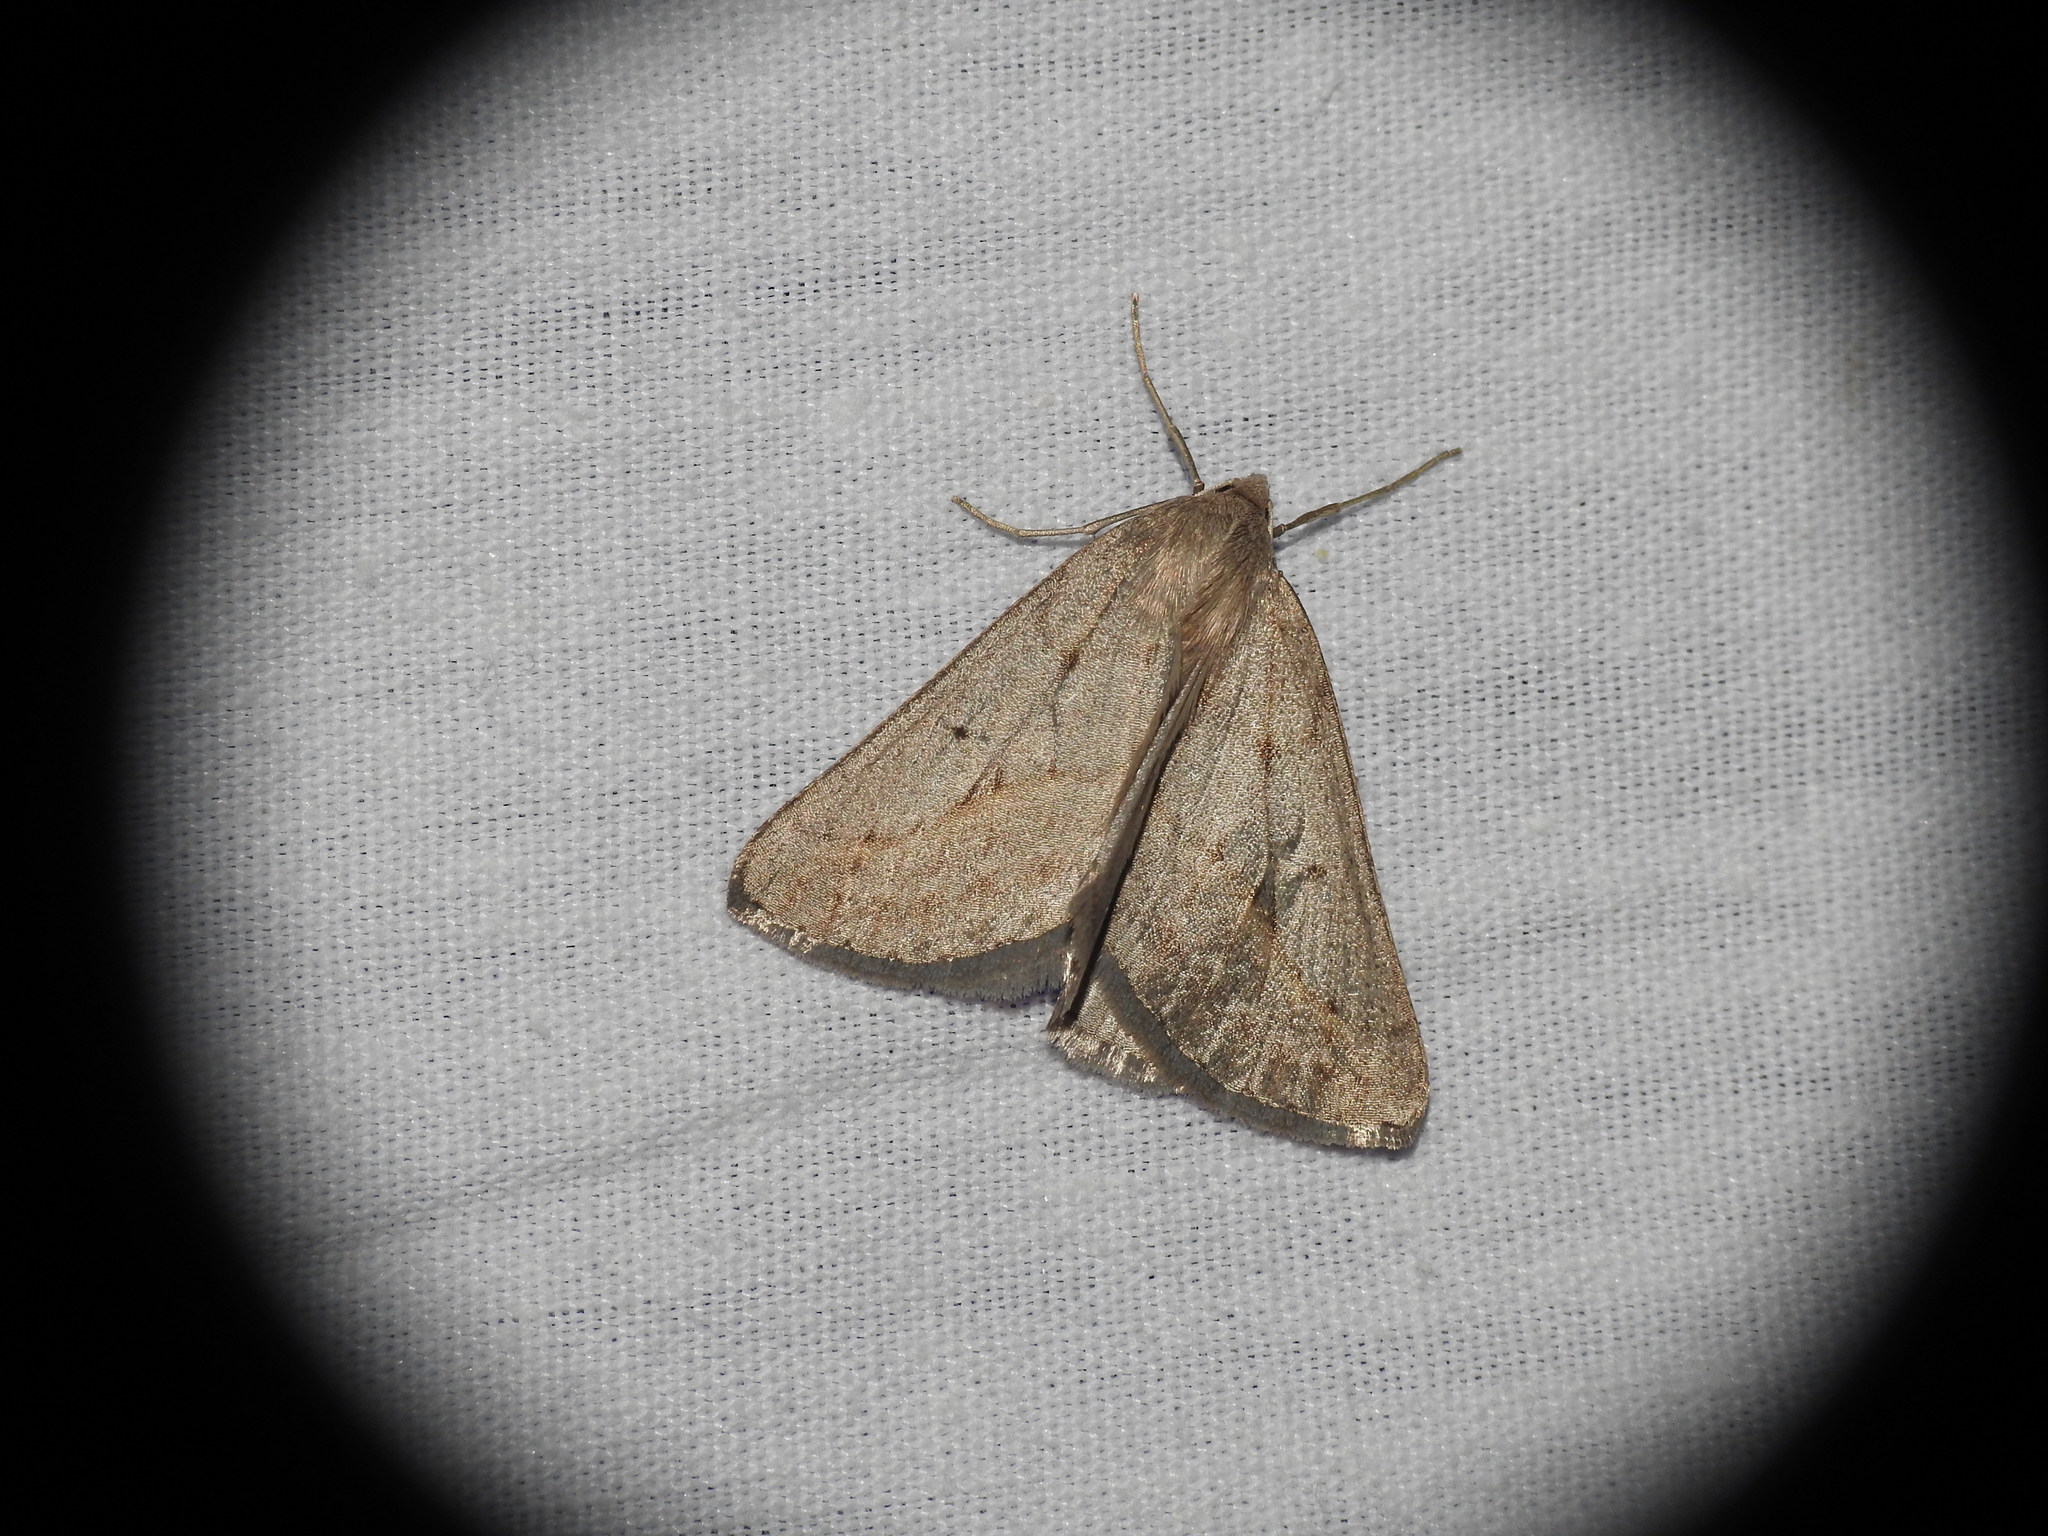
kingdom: Animalia
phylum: Arthropoda
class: Insecta
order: Lepidoptera
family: Geometridae
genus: Chemerina
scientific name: Chemerina caliginearia
